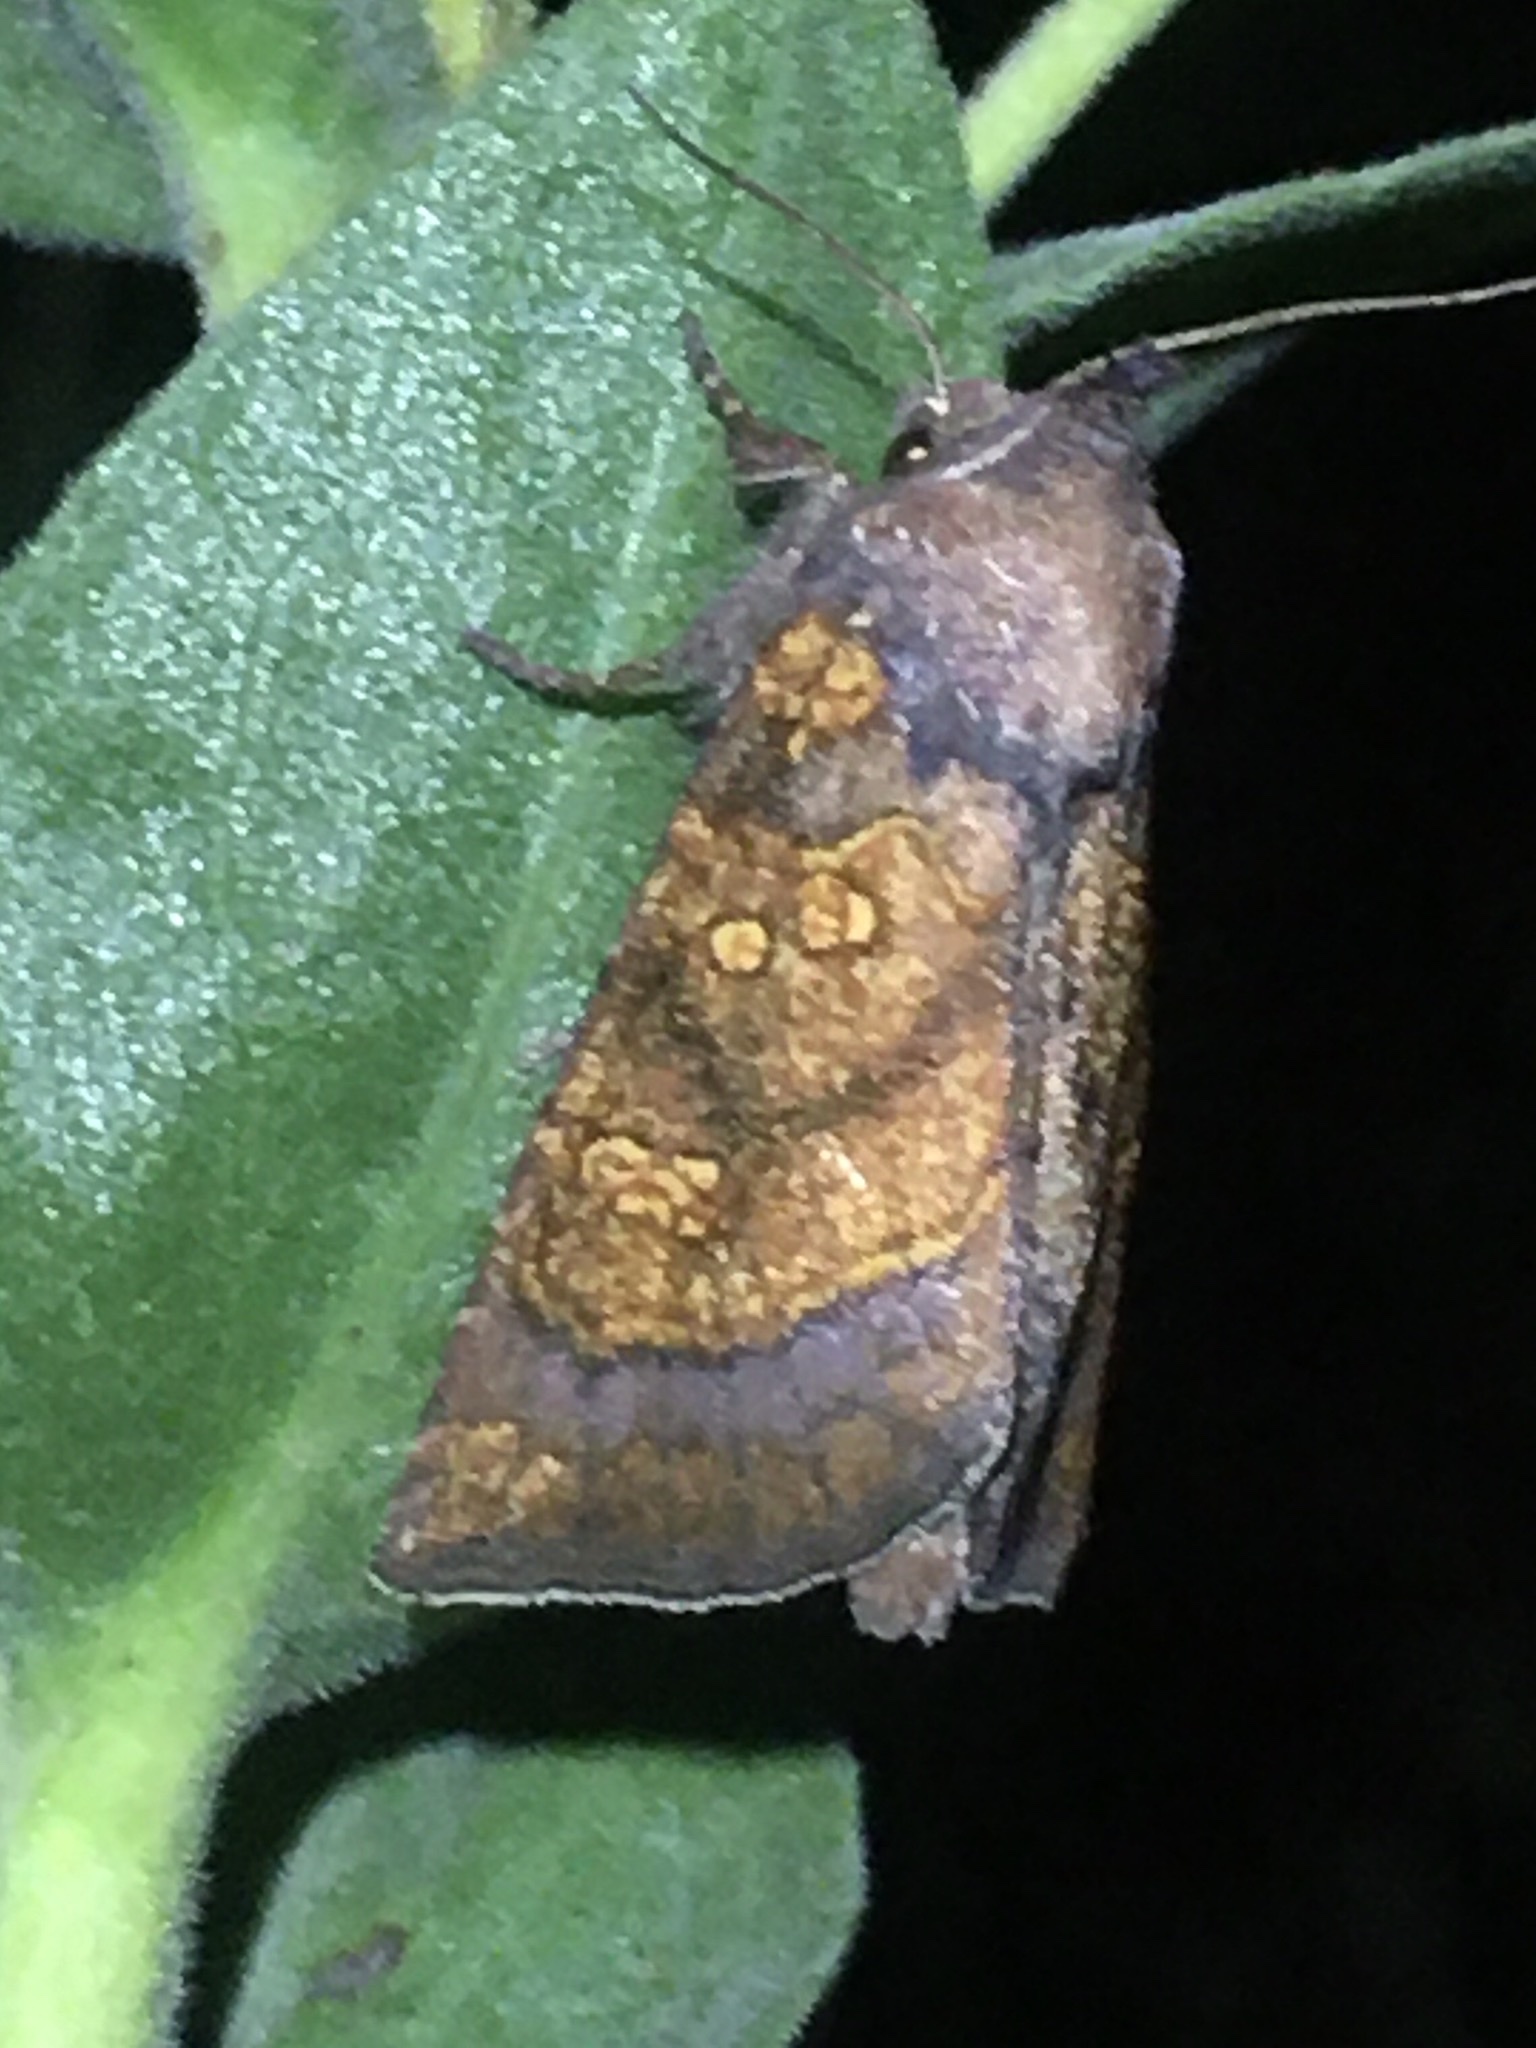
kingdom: Animalia
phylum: Arthropoda
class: Insecta
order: Lepidoptera
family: Noctuidae
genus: Papaipema
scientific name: Papaipema impecuniosa
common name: Aster borer moth
